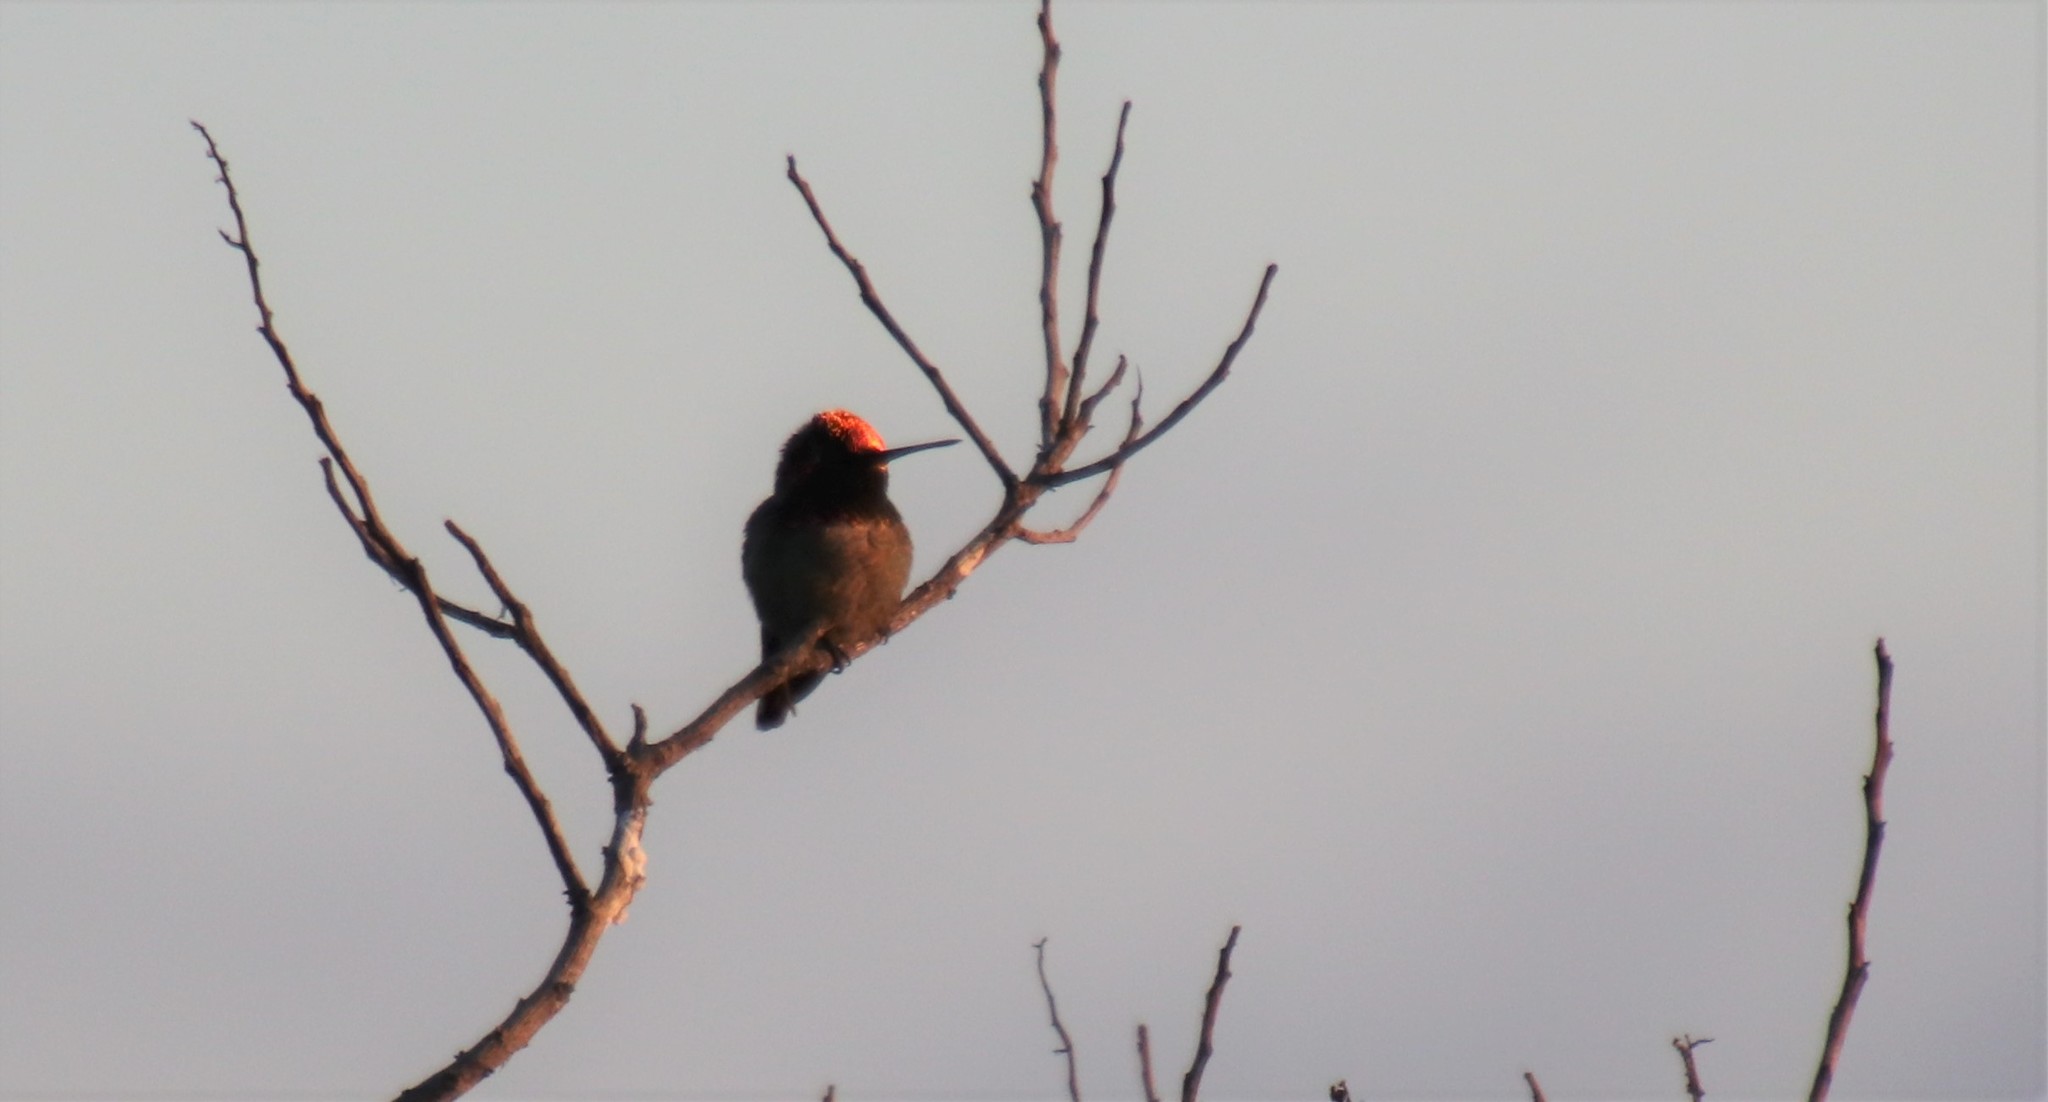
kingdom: Animalia
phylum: Chordata
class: Aves
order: Apodiformes
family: Trochilidae
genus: Calypte
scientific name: Calypte anna
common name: Anna's hummingbird
